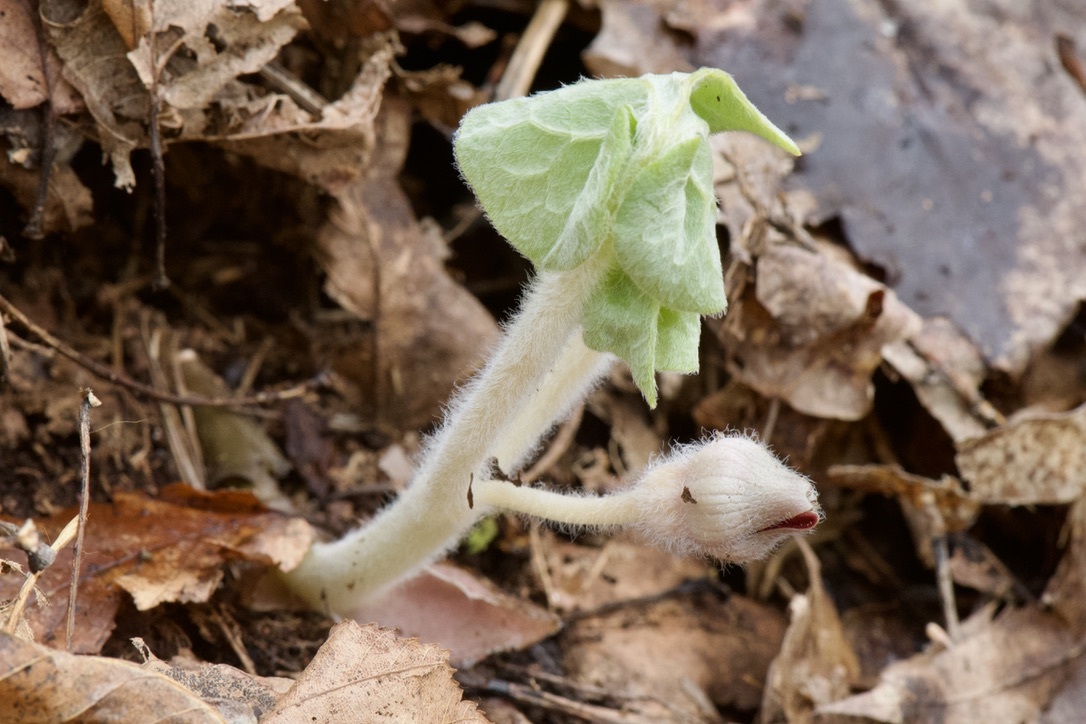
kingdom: Plantae
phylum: Tracheophyta
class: Magnoliopsida
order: Piperales
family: Aristolochiaceae
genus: Asarum
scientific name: Asarum canadense
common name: Wild ginger
